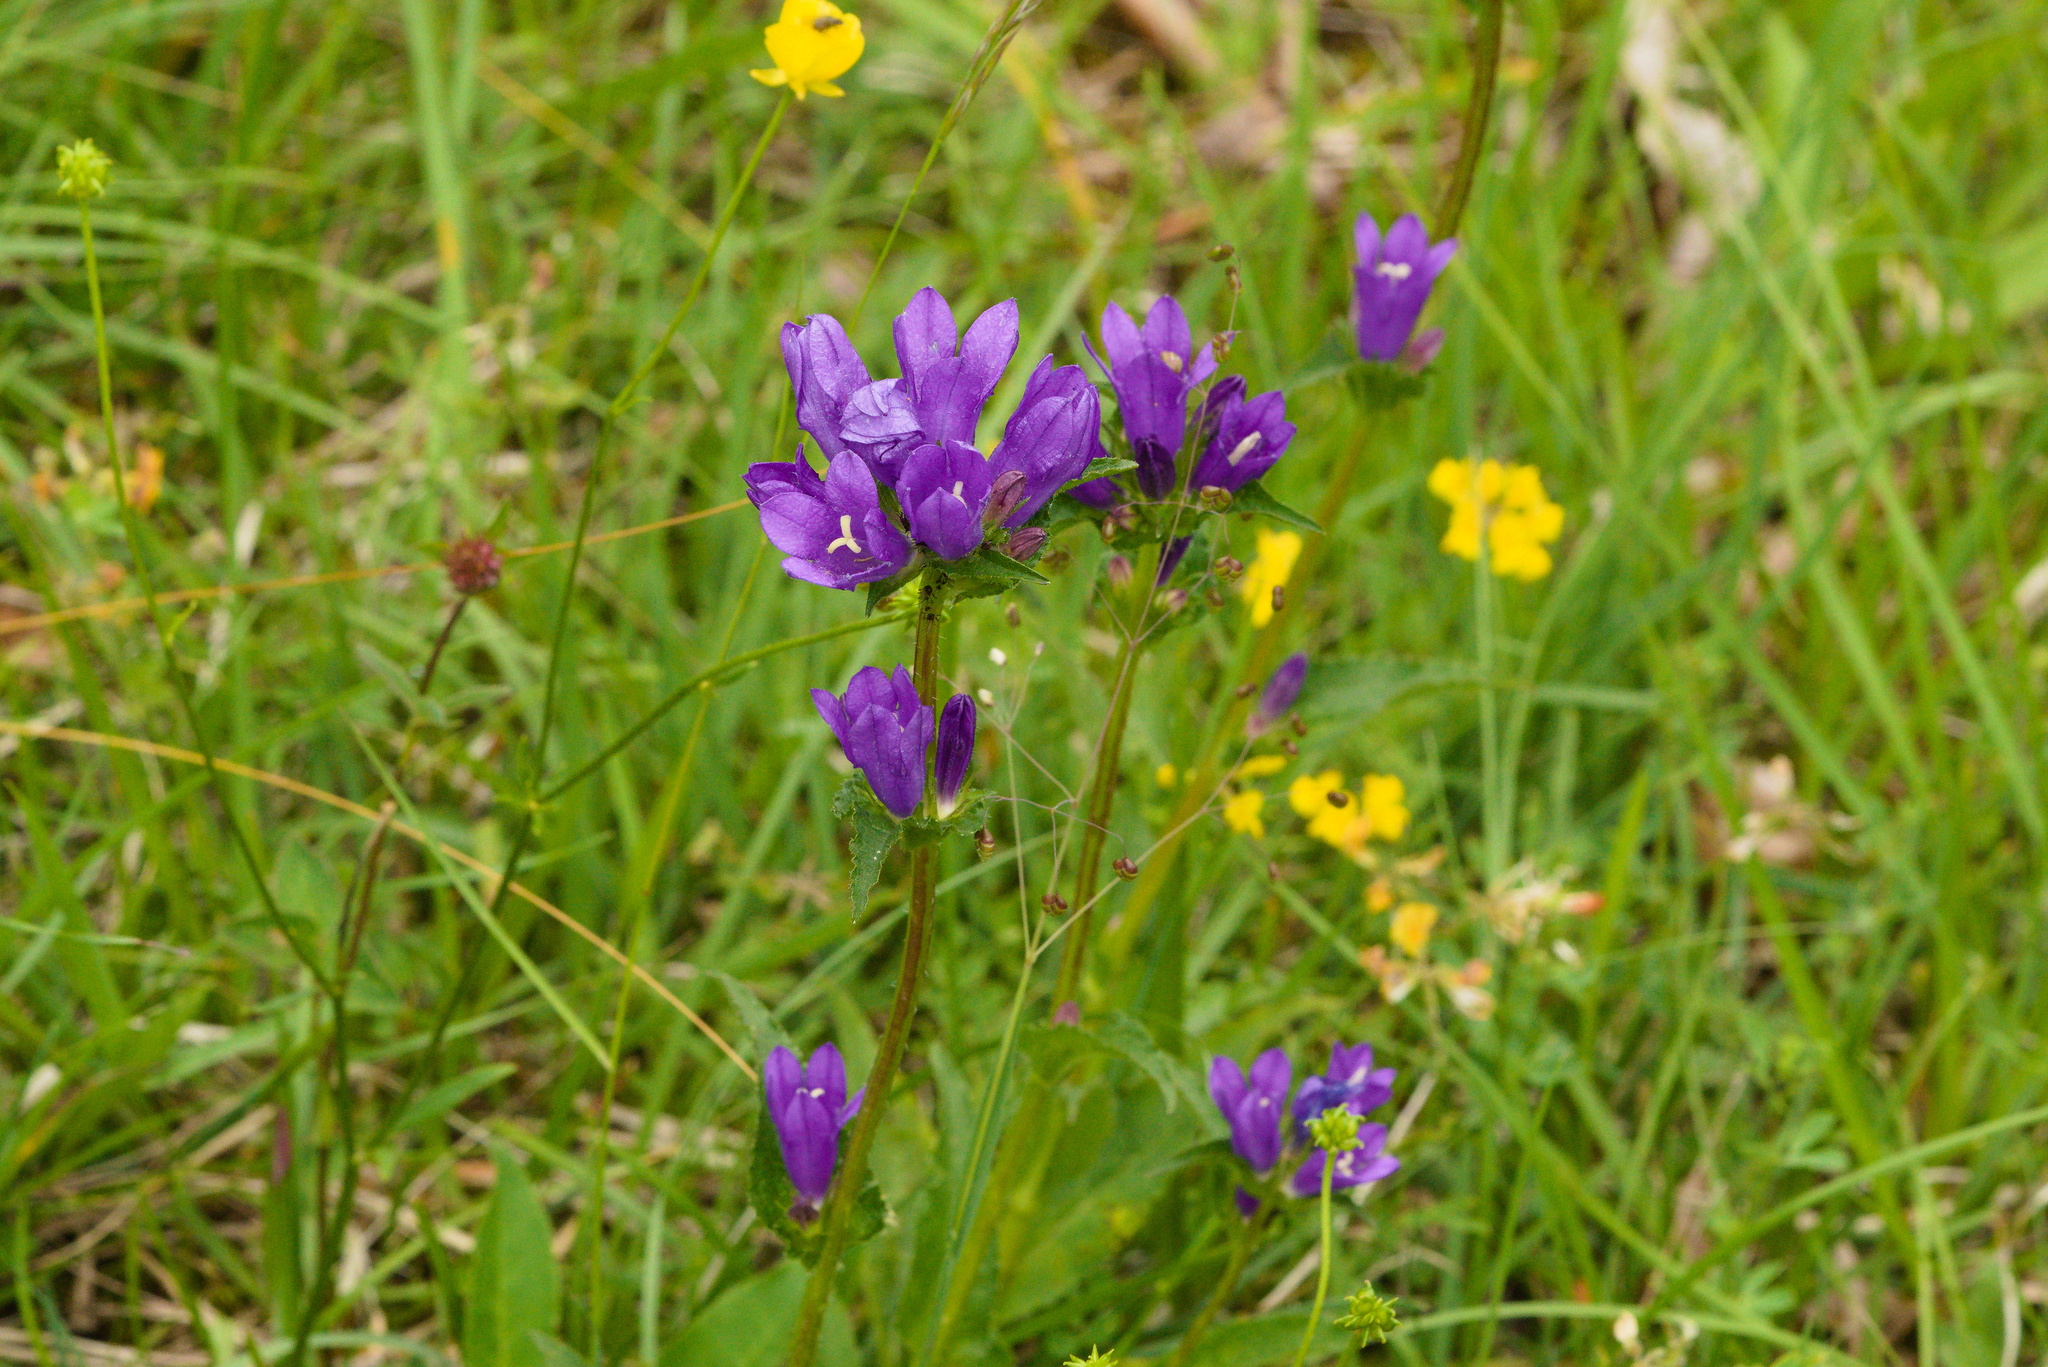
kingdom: Plantae
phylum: Tracheophyta
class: Magnoliopsida
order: Asterales
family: Campanulaceae
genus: Campanula
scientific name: Campanula glomerata
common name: Clustered bellflower
